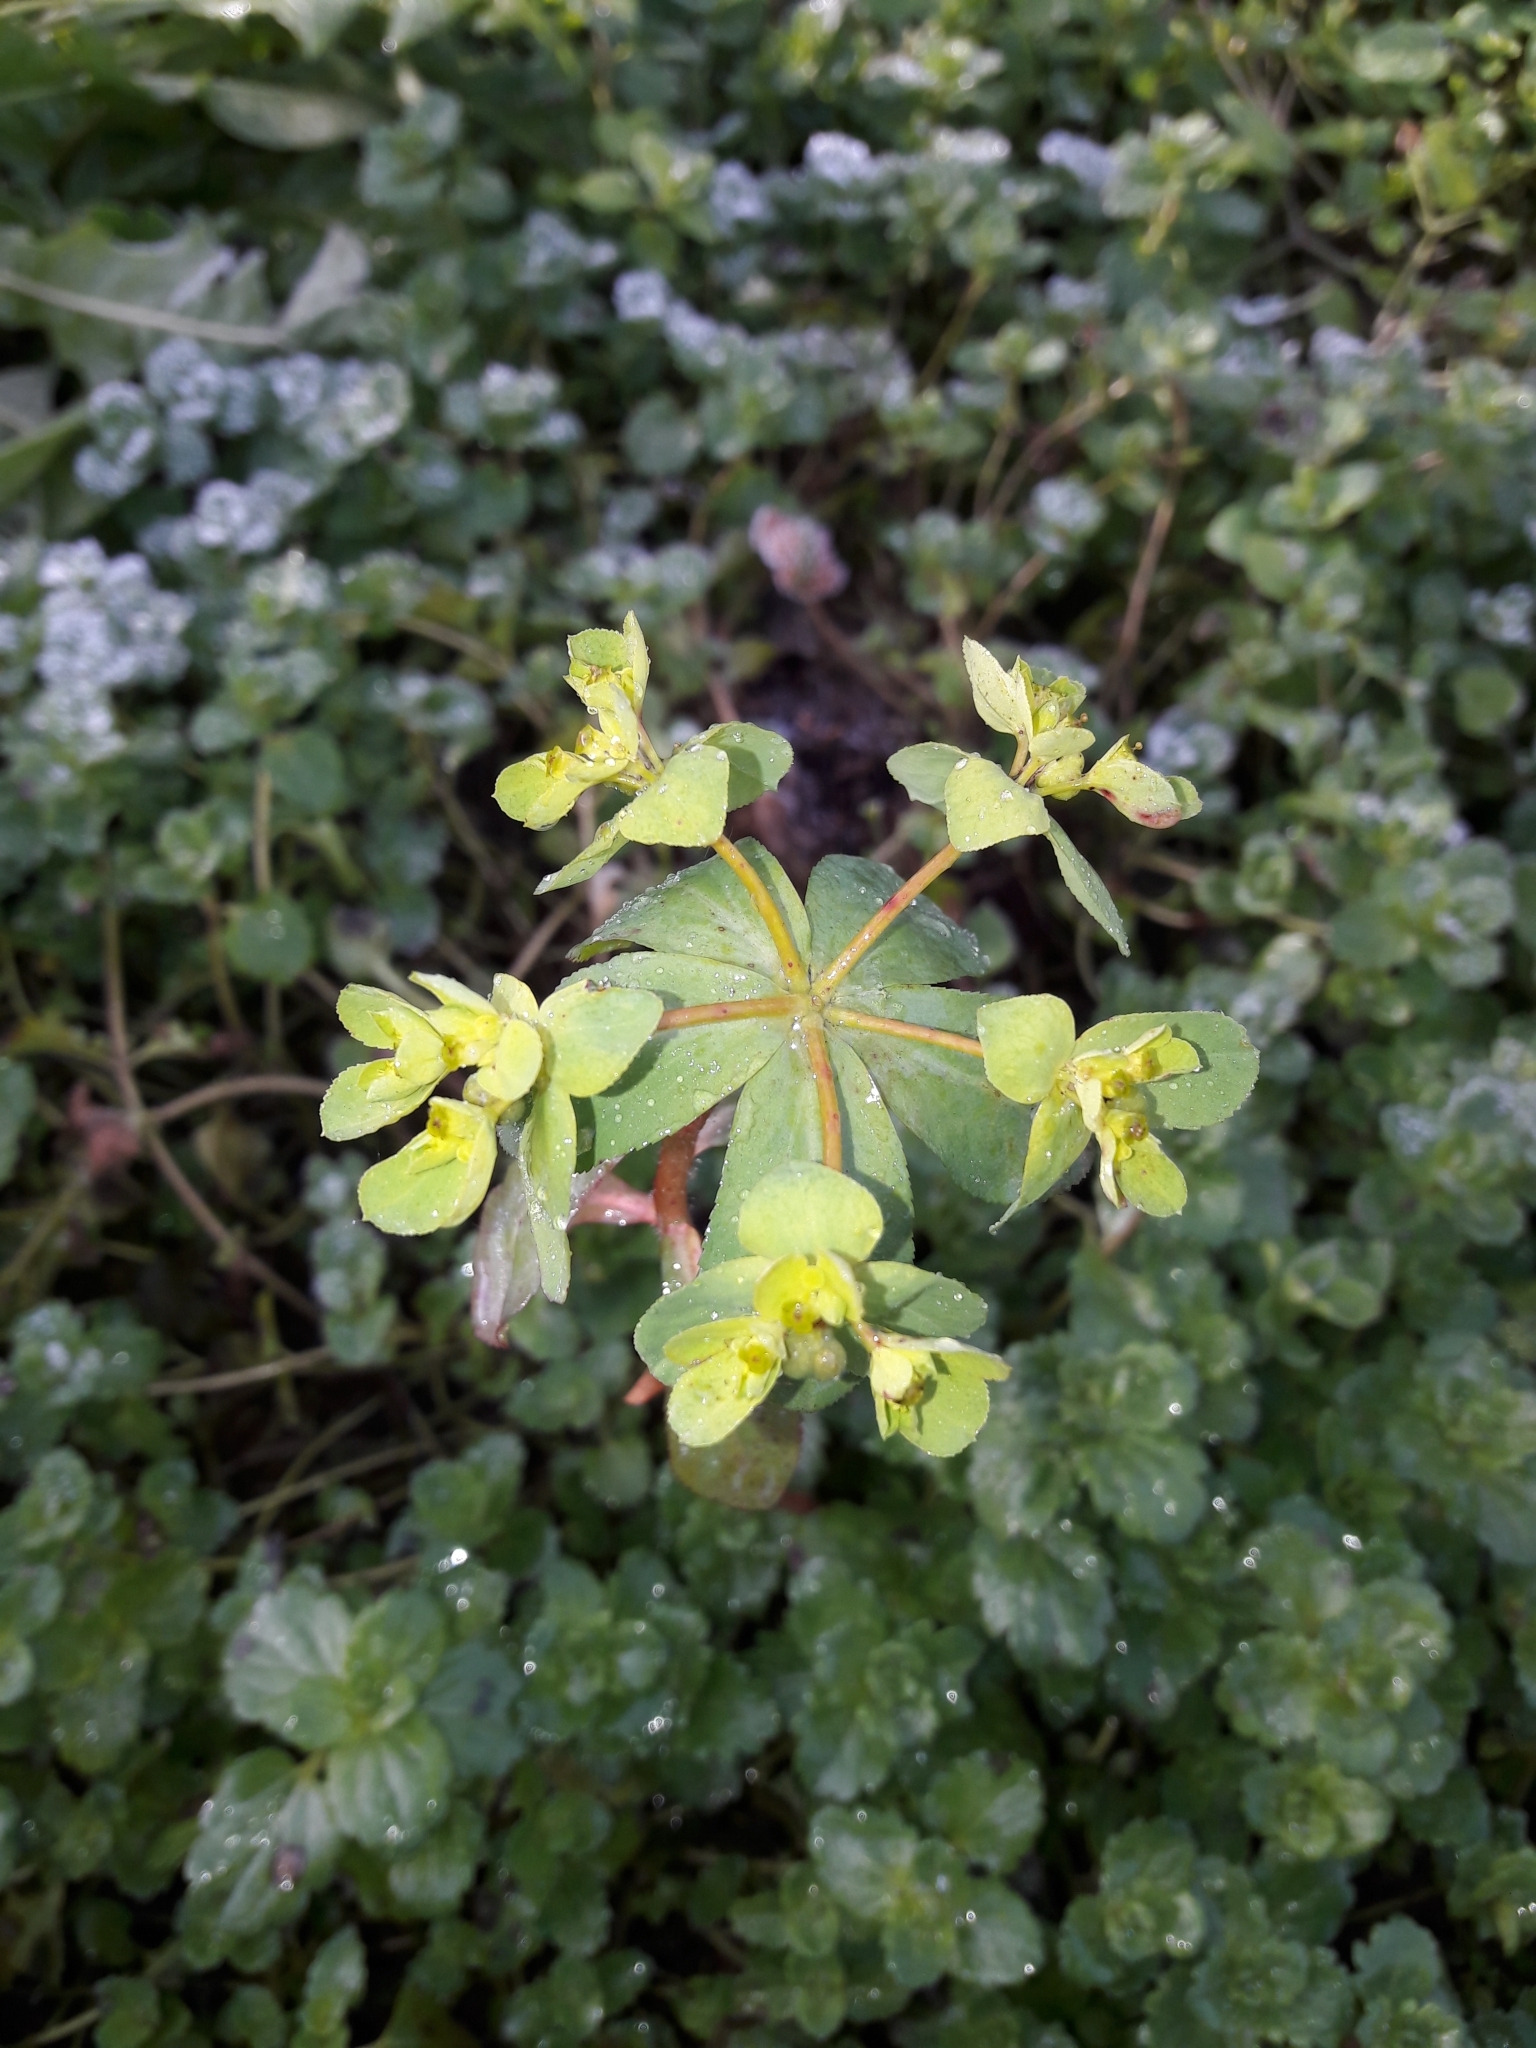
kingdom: Plantae
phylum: Tracheophyta
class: Magnoliopsida
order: Malpighiales
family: Euphorbiaceae
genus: Euphorbia
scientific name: Euphorbia helioscopia
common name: Sun spurge
